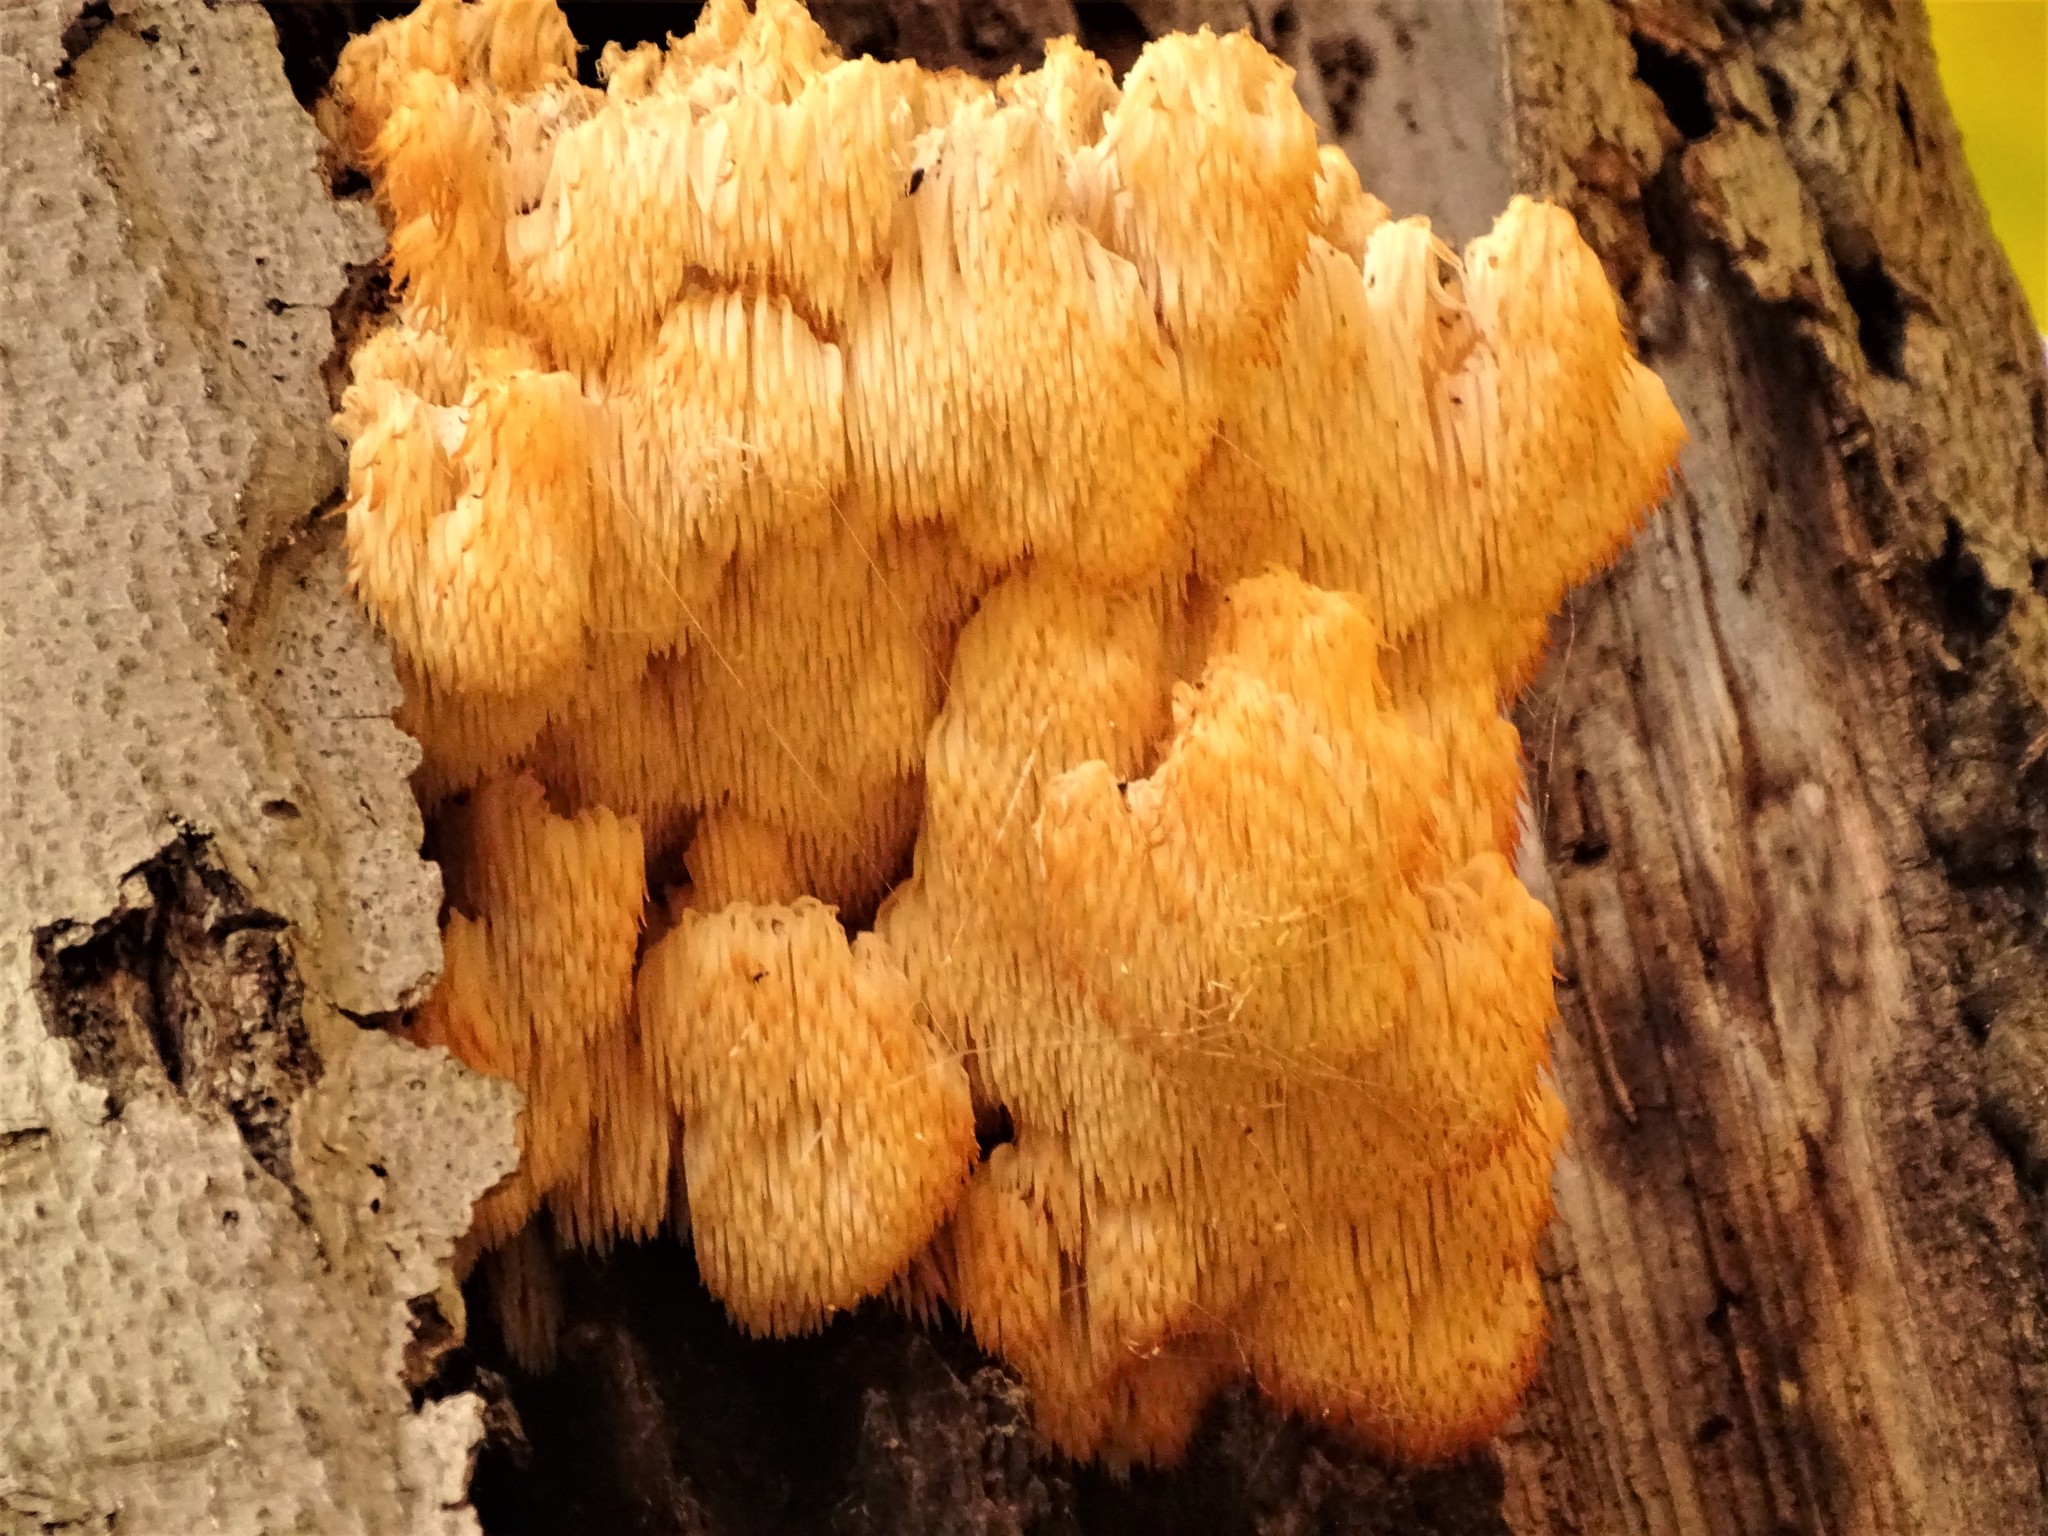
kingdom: Fungi
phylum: Basidiomycota
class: Agaricomycetes
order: Russulales
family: Hericiaceae
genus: Hericium
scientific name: Hericium americanum
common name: Bear's head tooth
